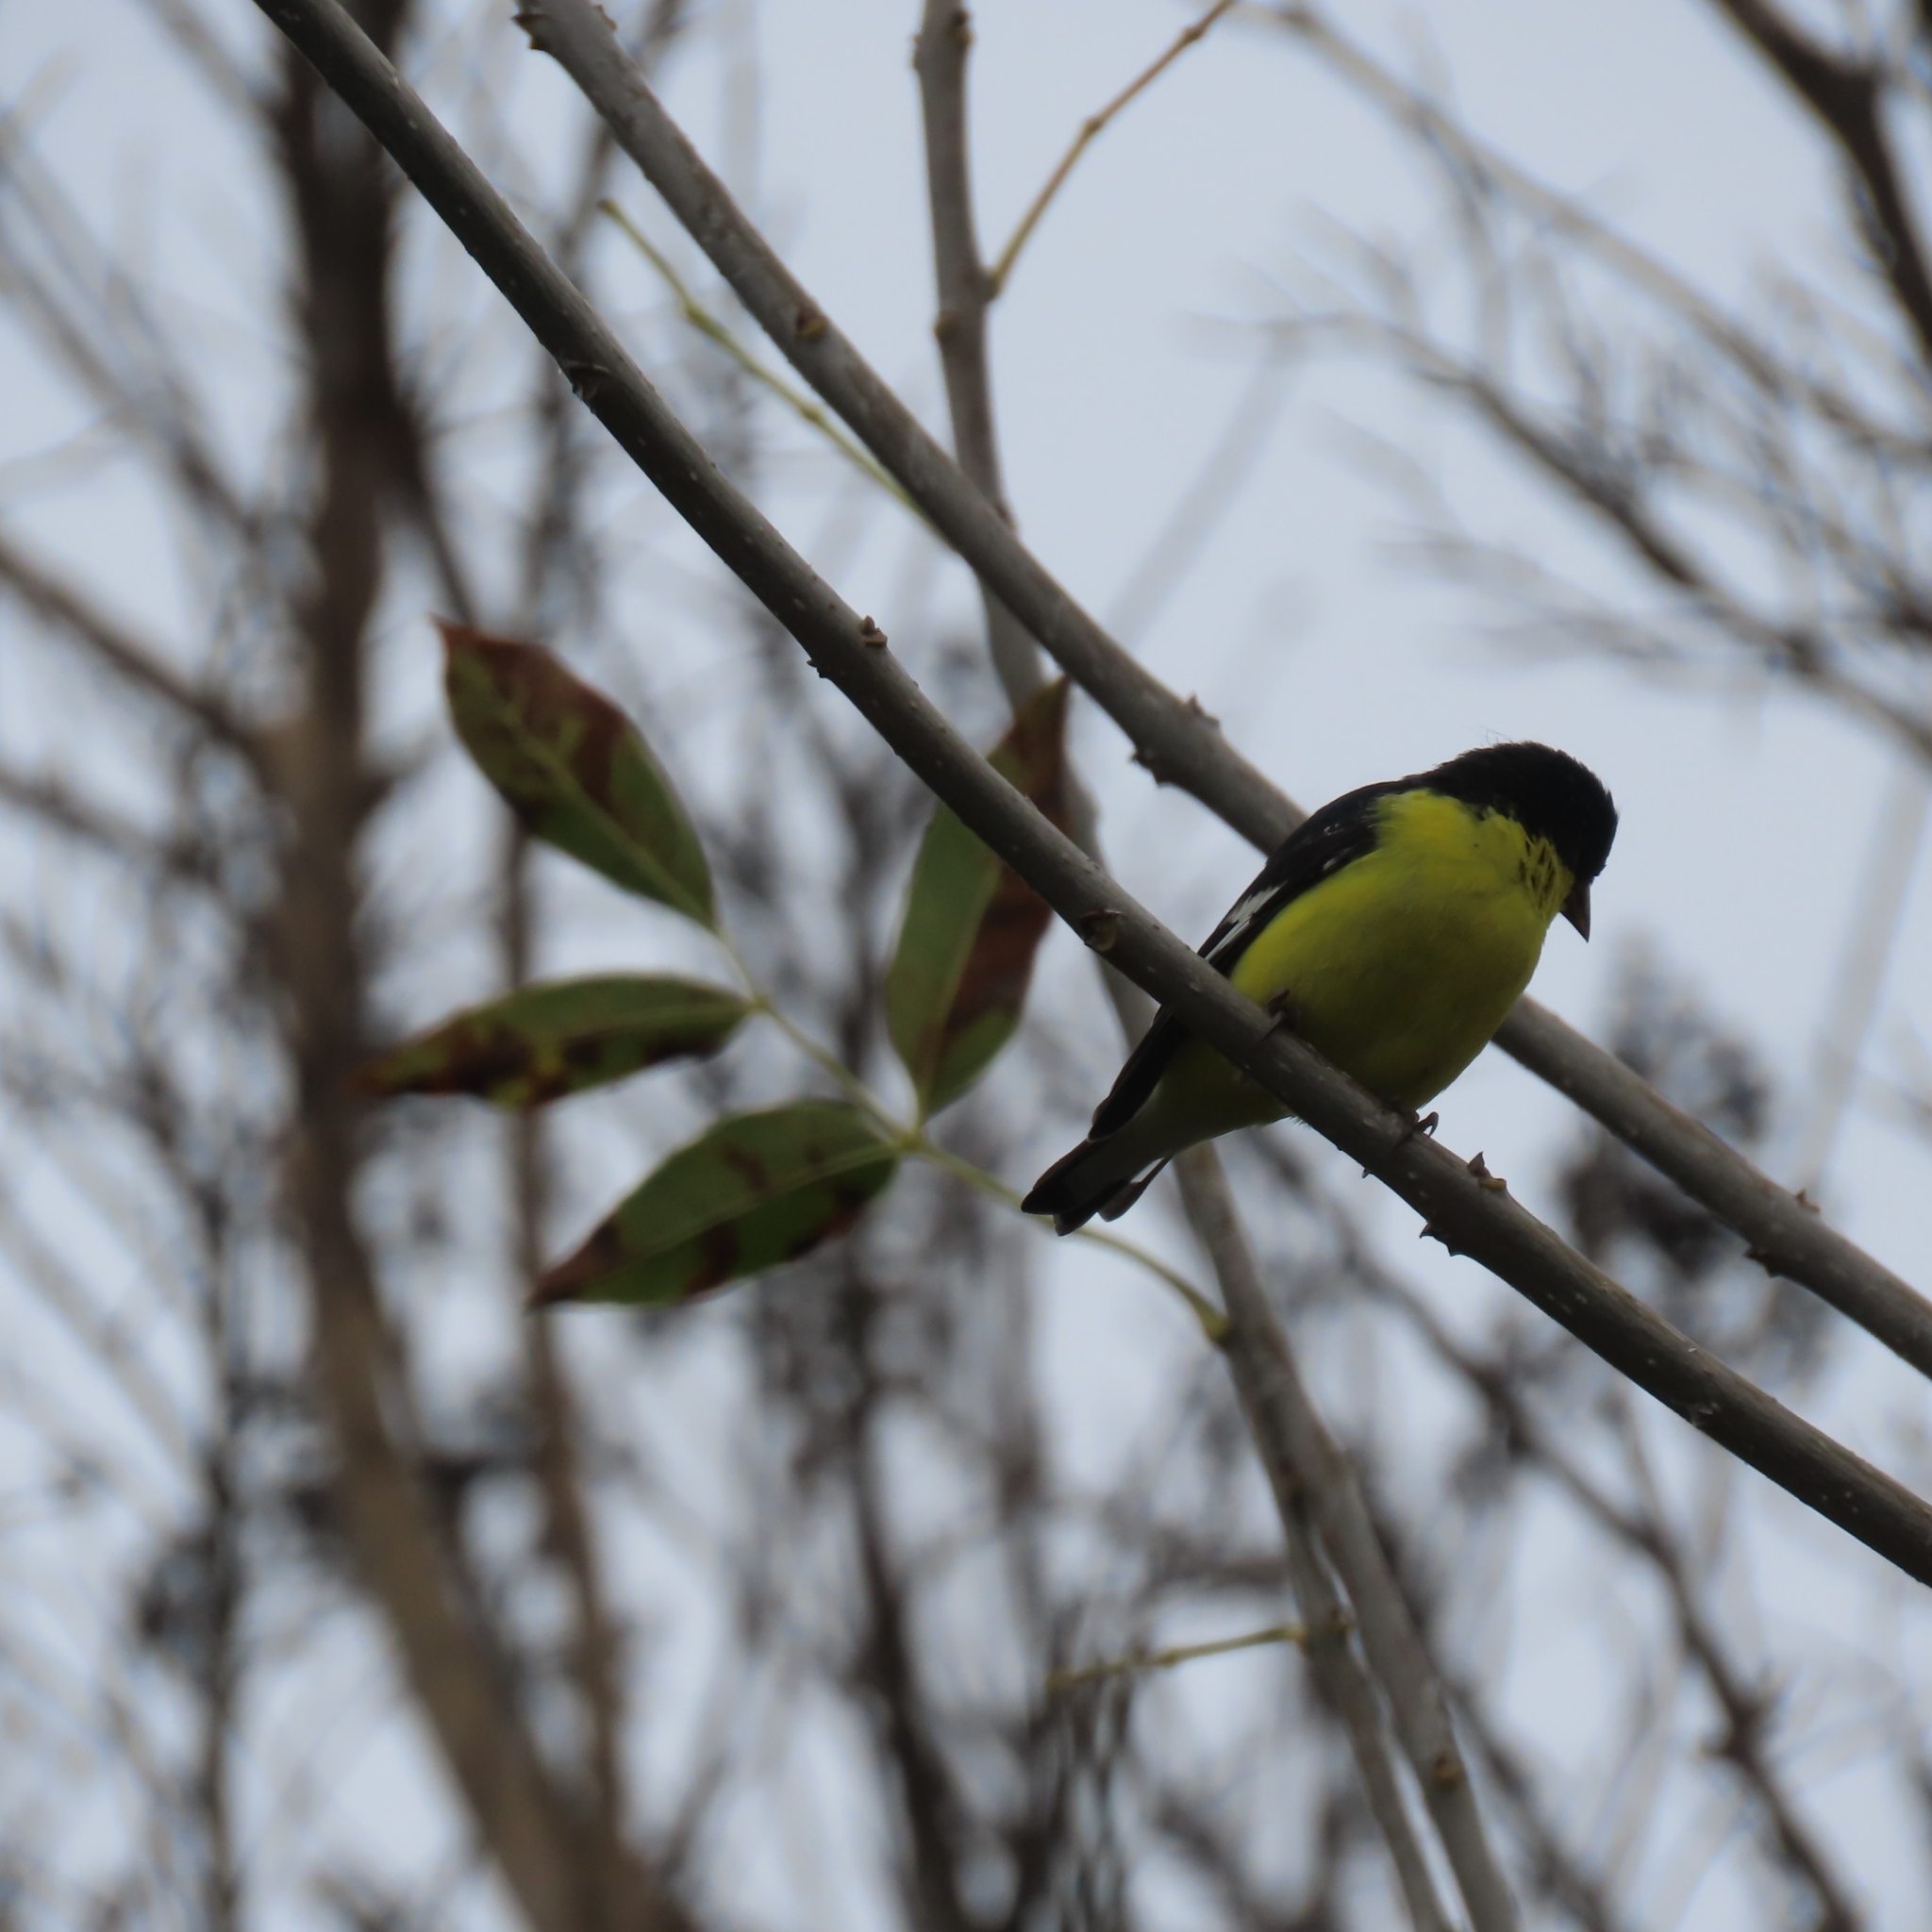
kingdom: Animalia
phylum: Chordata
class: Aves
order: Passeriformes
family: Fringillidae
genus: Spinus
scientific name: Spinus psaltria
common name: Lesser goldfinch
